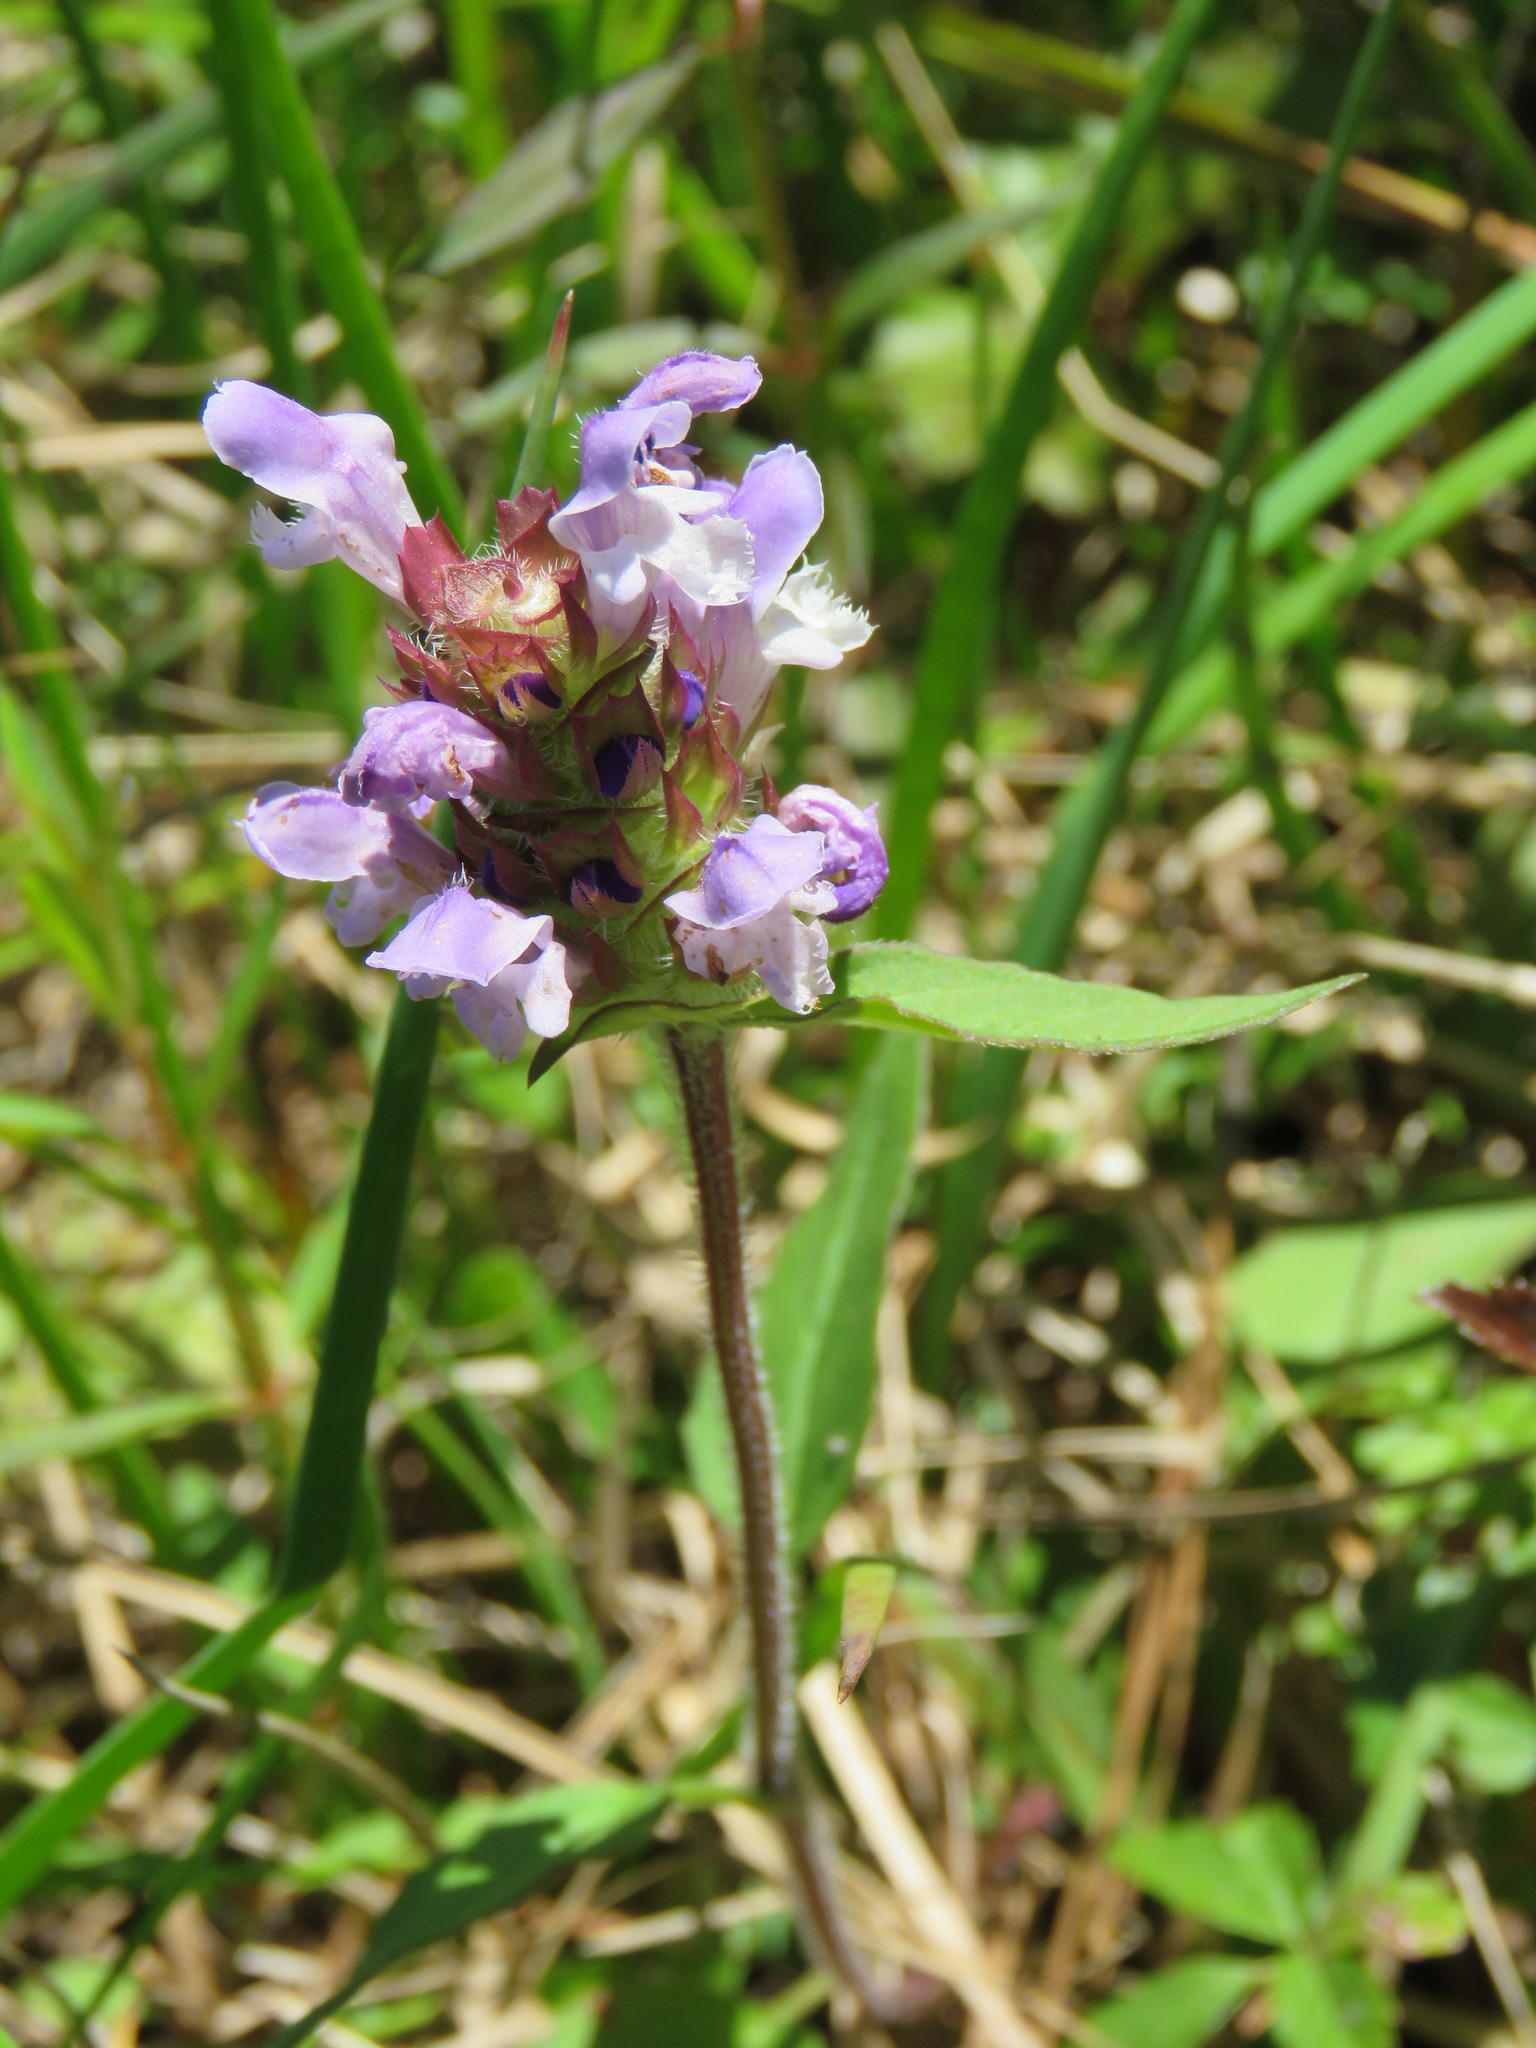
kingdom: Plantae
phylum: Tracheophyta
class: Magnoliopsida
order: Lamiales
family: Lamiaceae
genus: Prunella
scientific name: Prunella vulgaris
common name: Heal-all
